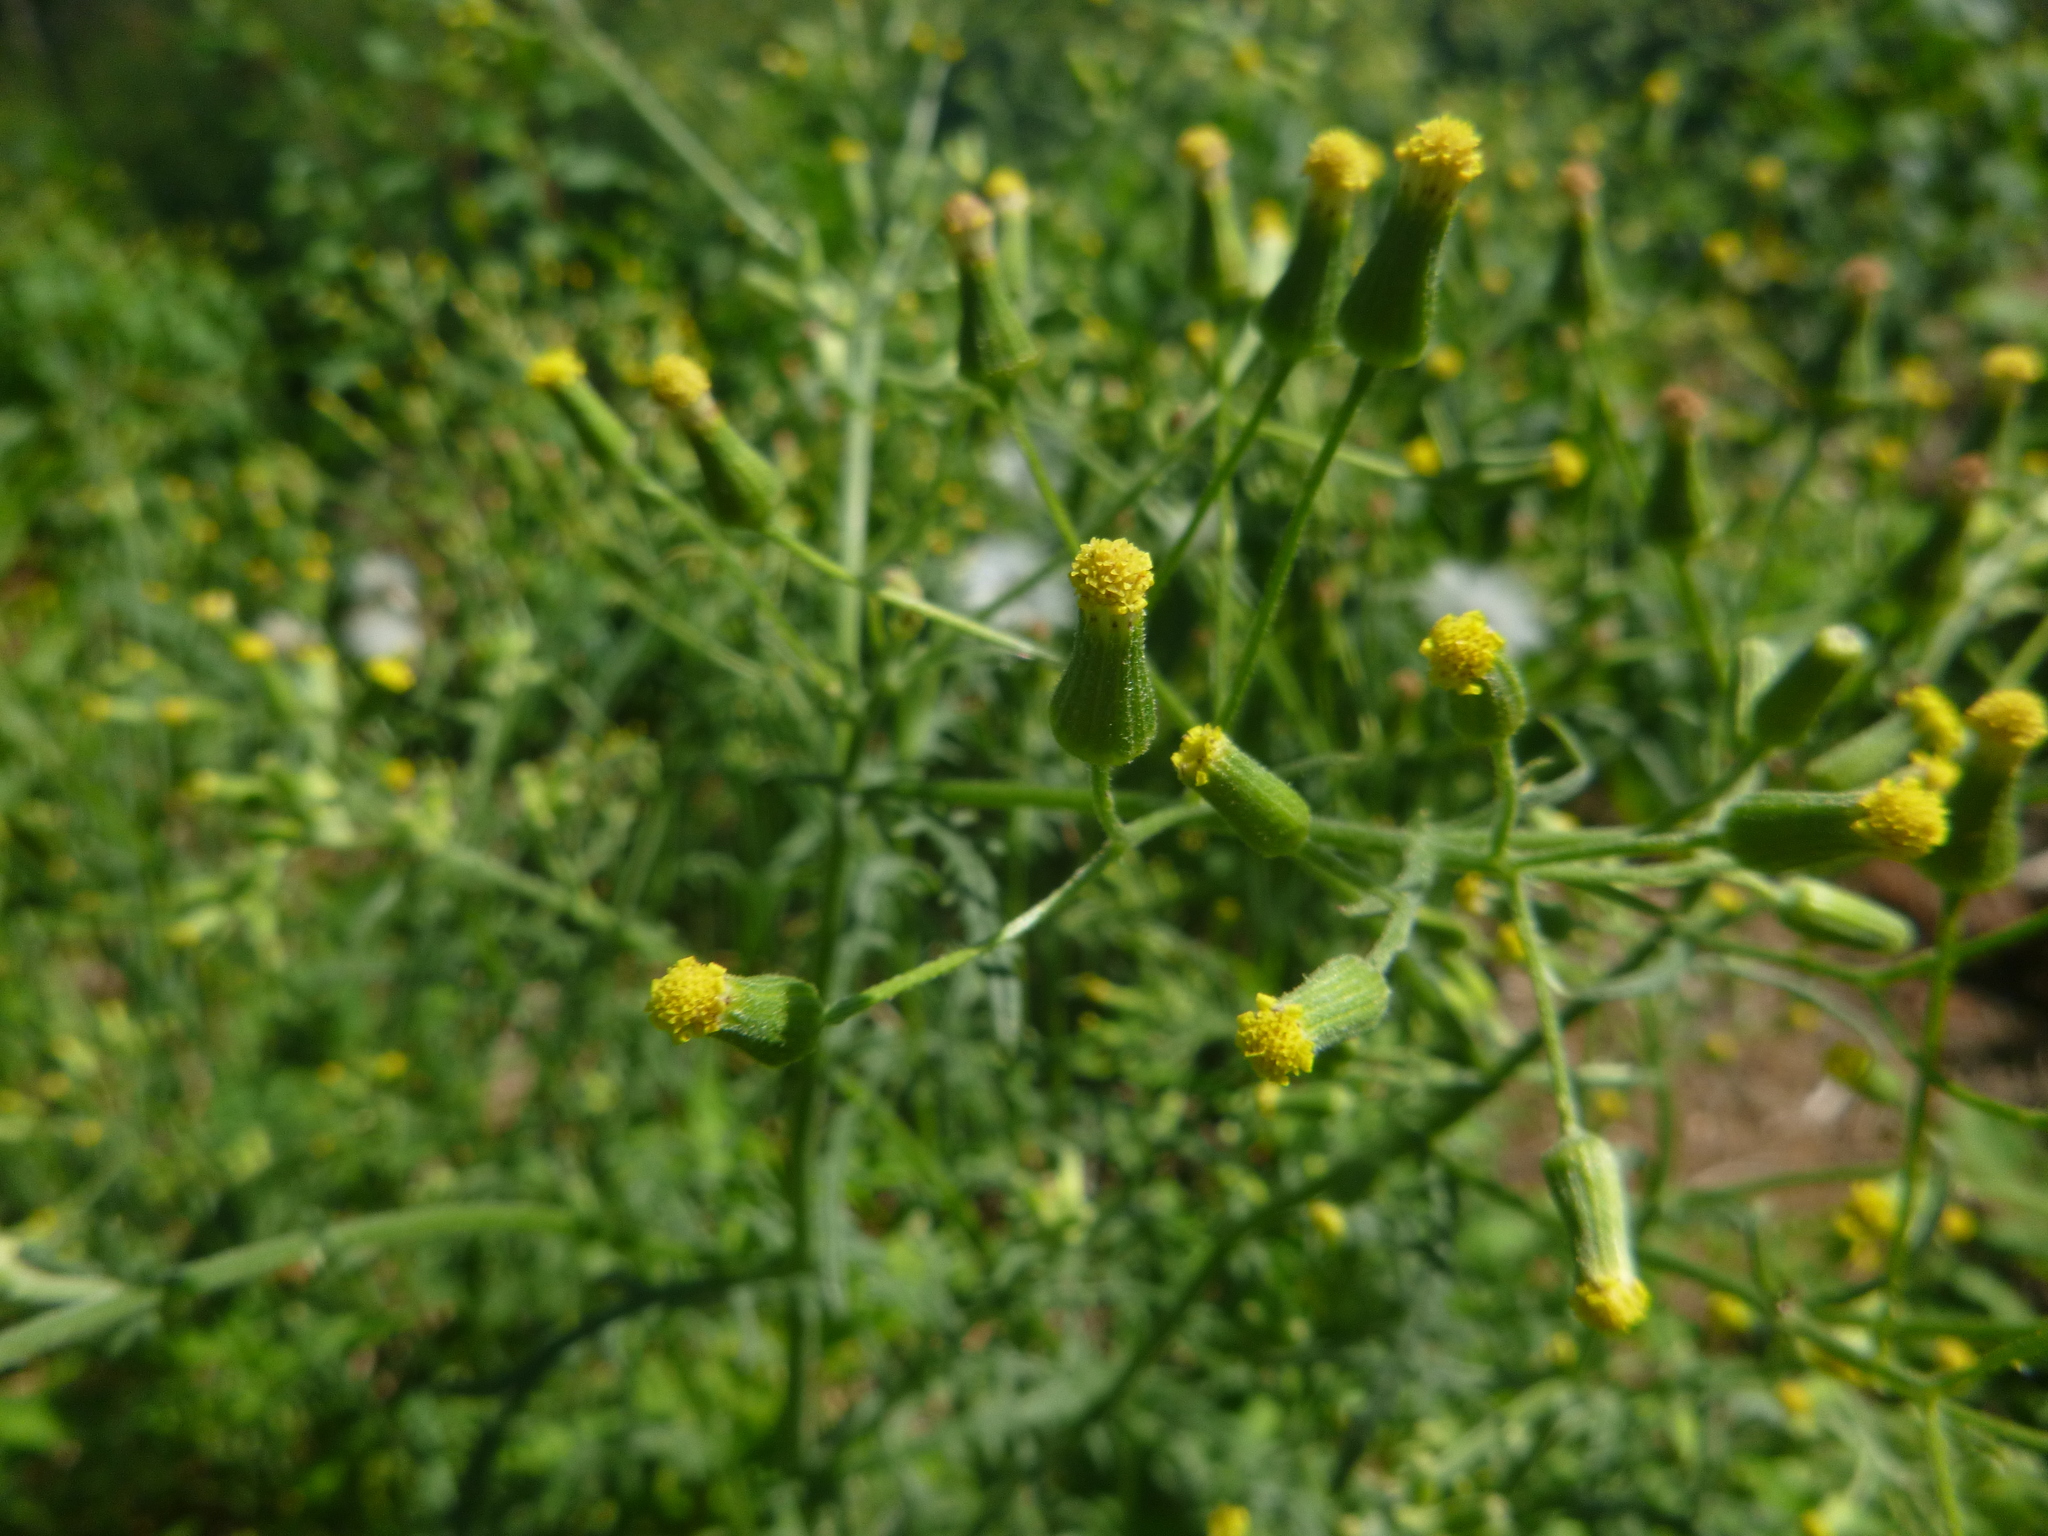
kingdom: Plantae
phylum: Tracheophyta
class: Magnoliopsida
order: Asterales
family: Asteraceae
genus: Senecio
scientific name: Senecio sylvaticus
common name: Woodland ragwort
